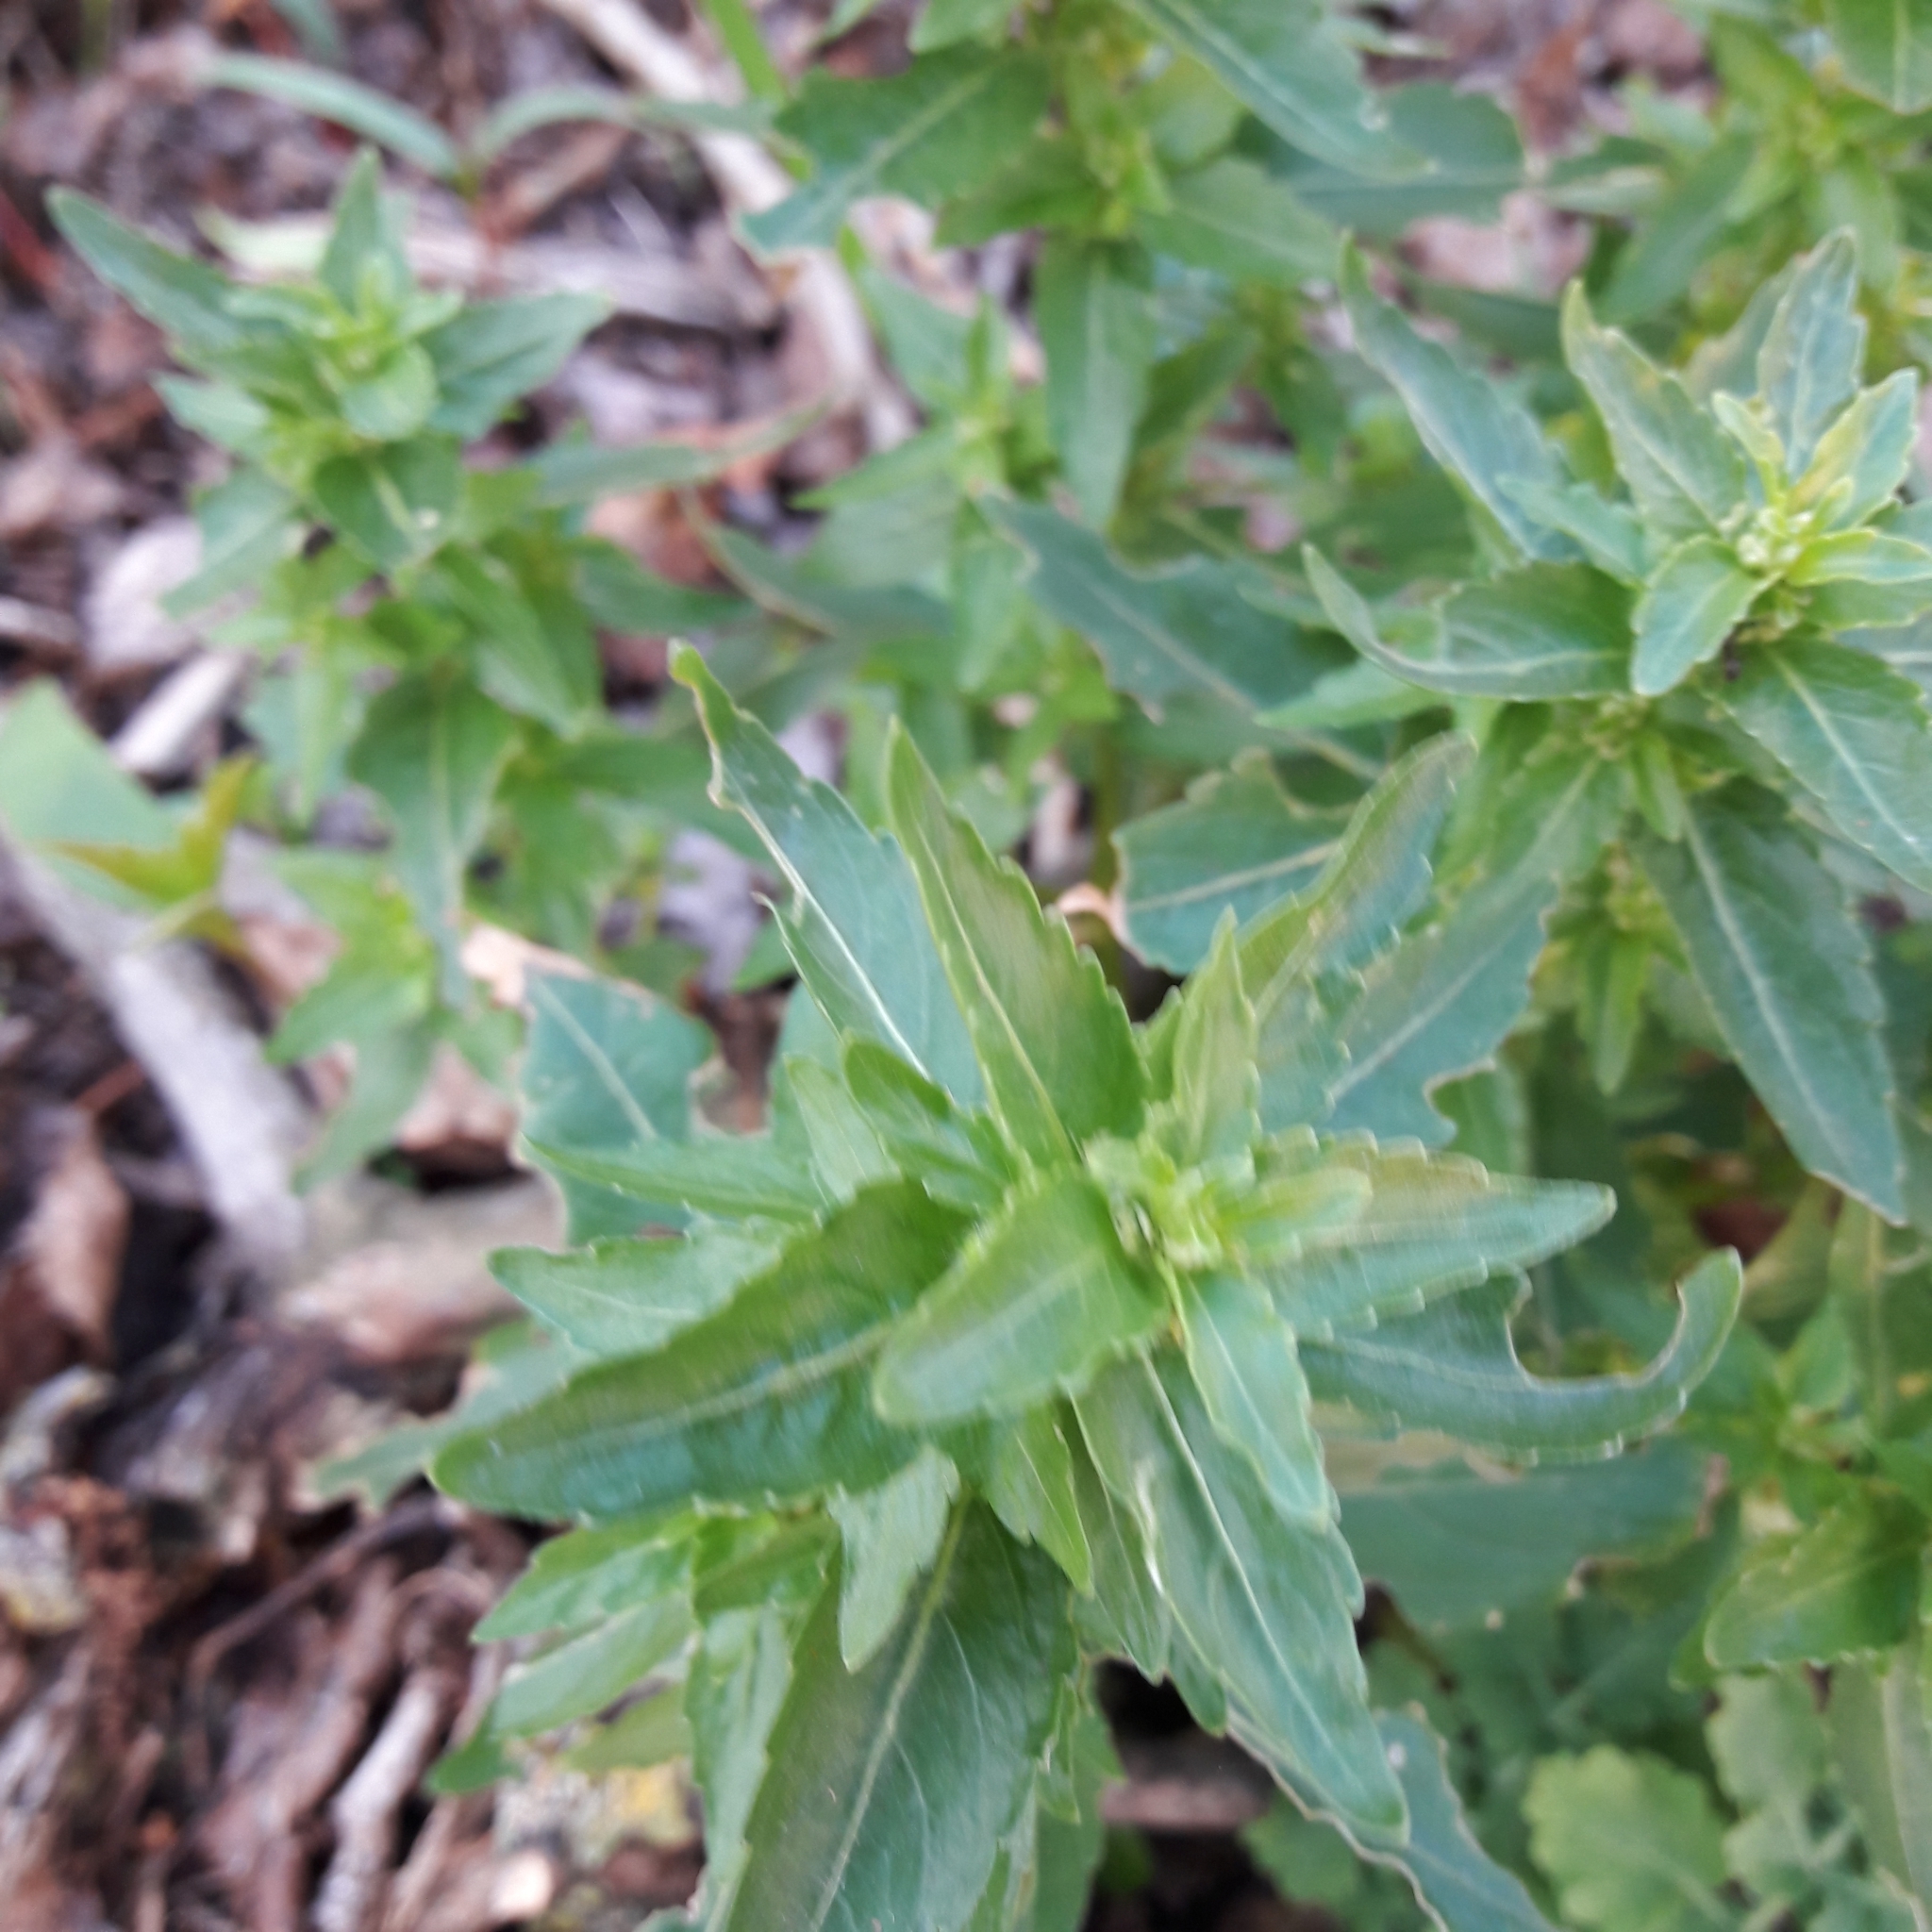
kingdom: Plantae
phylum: Tracheophyta
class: Magnoliopsida
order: Malpighiales
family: Euphorbiaceae
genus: Mercurialis
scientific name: Mercurialis annua
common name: Annual mercury
